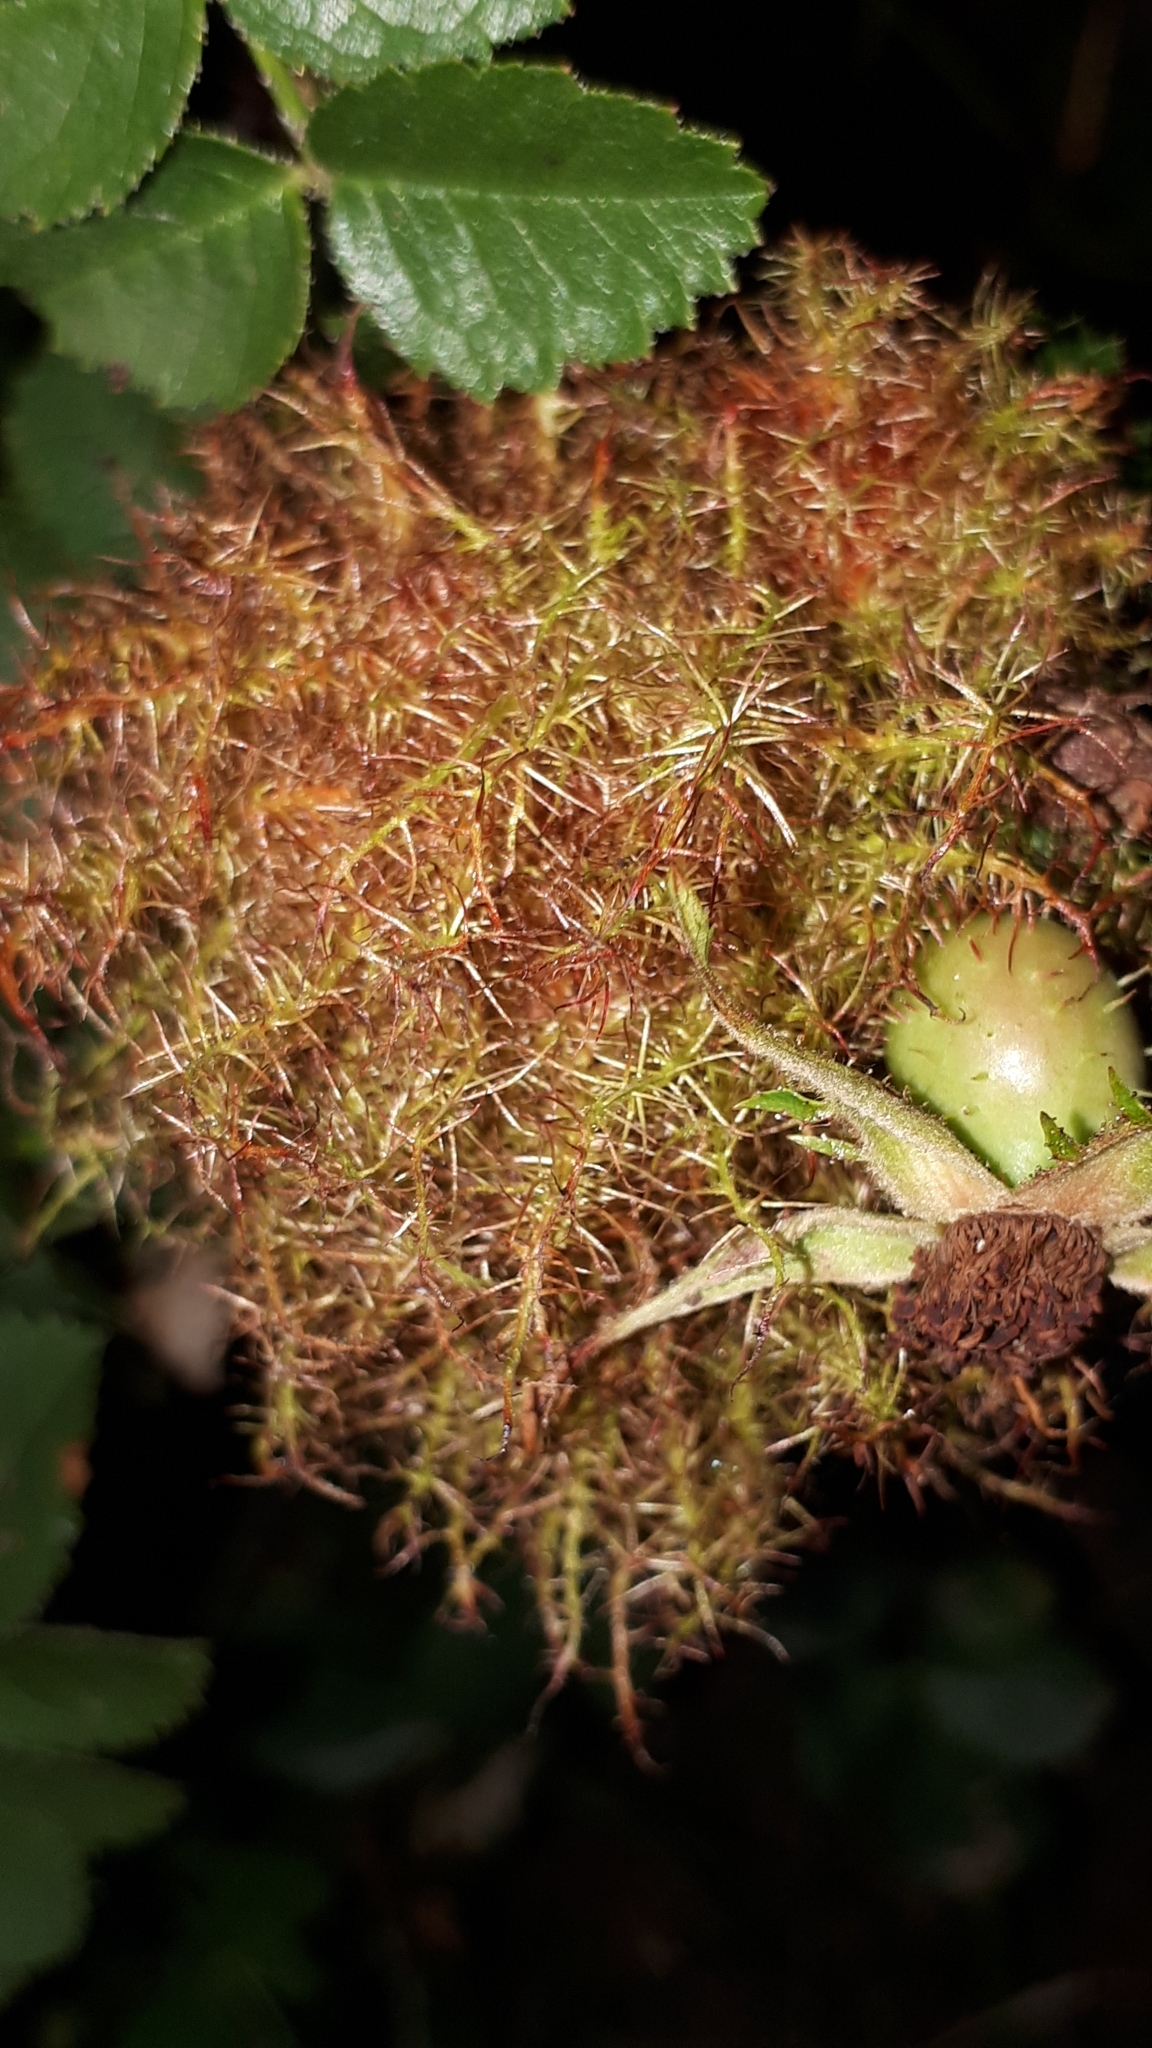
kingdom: Animalia
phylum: Arthropoda
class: Insecta
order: Hymenoptera
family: Cynipidae
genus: Diplolepis
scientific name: Diplolepis rosae
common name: Bedeguar gall
